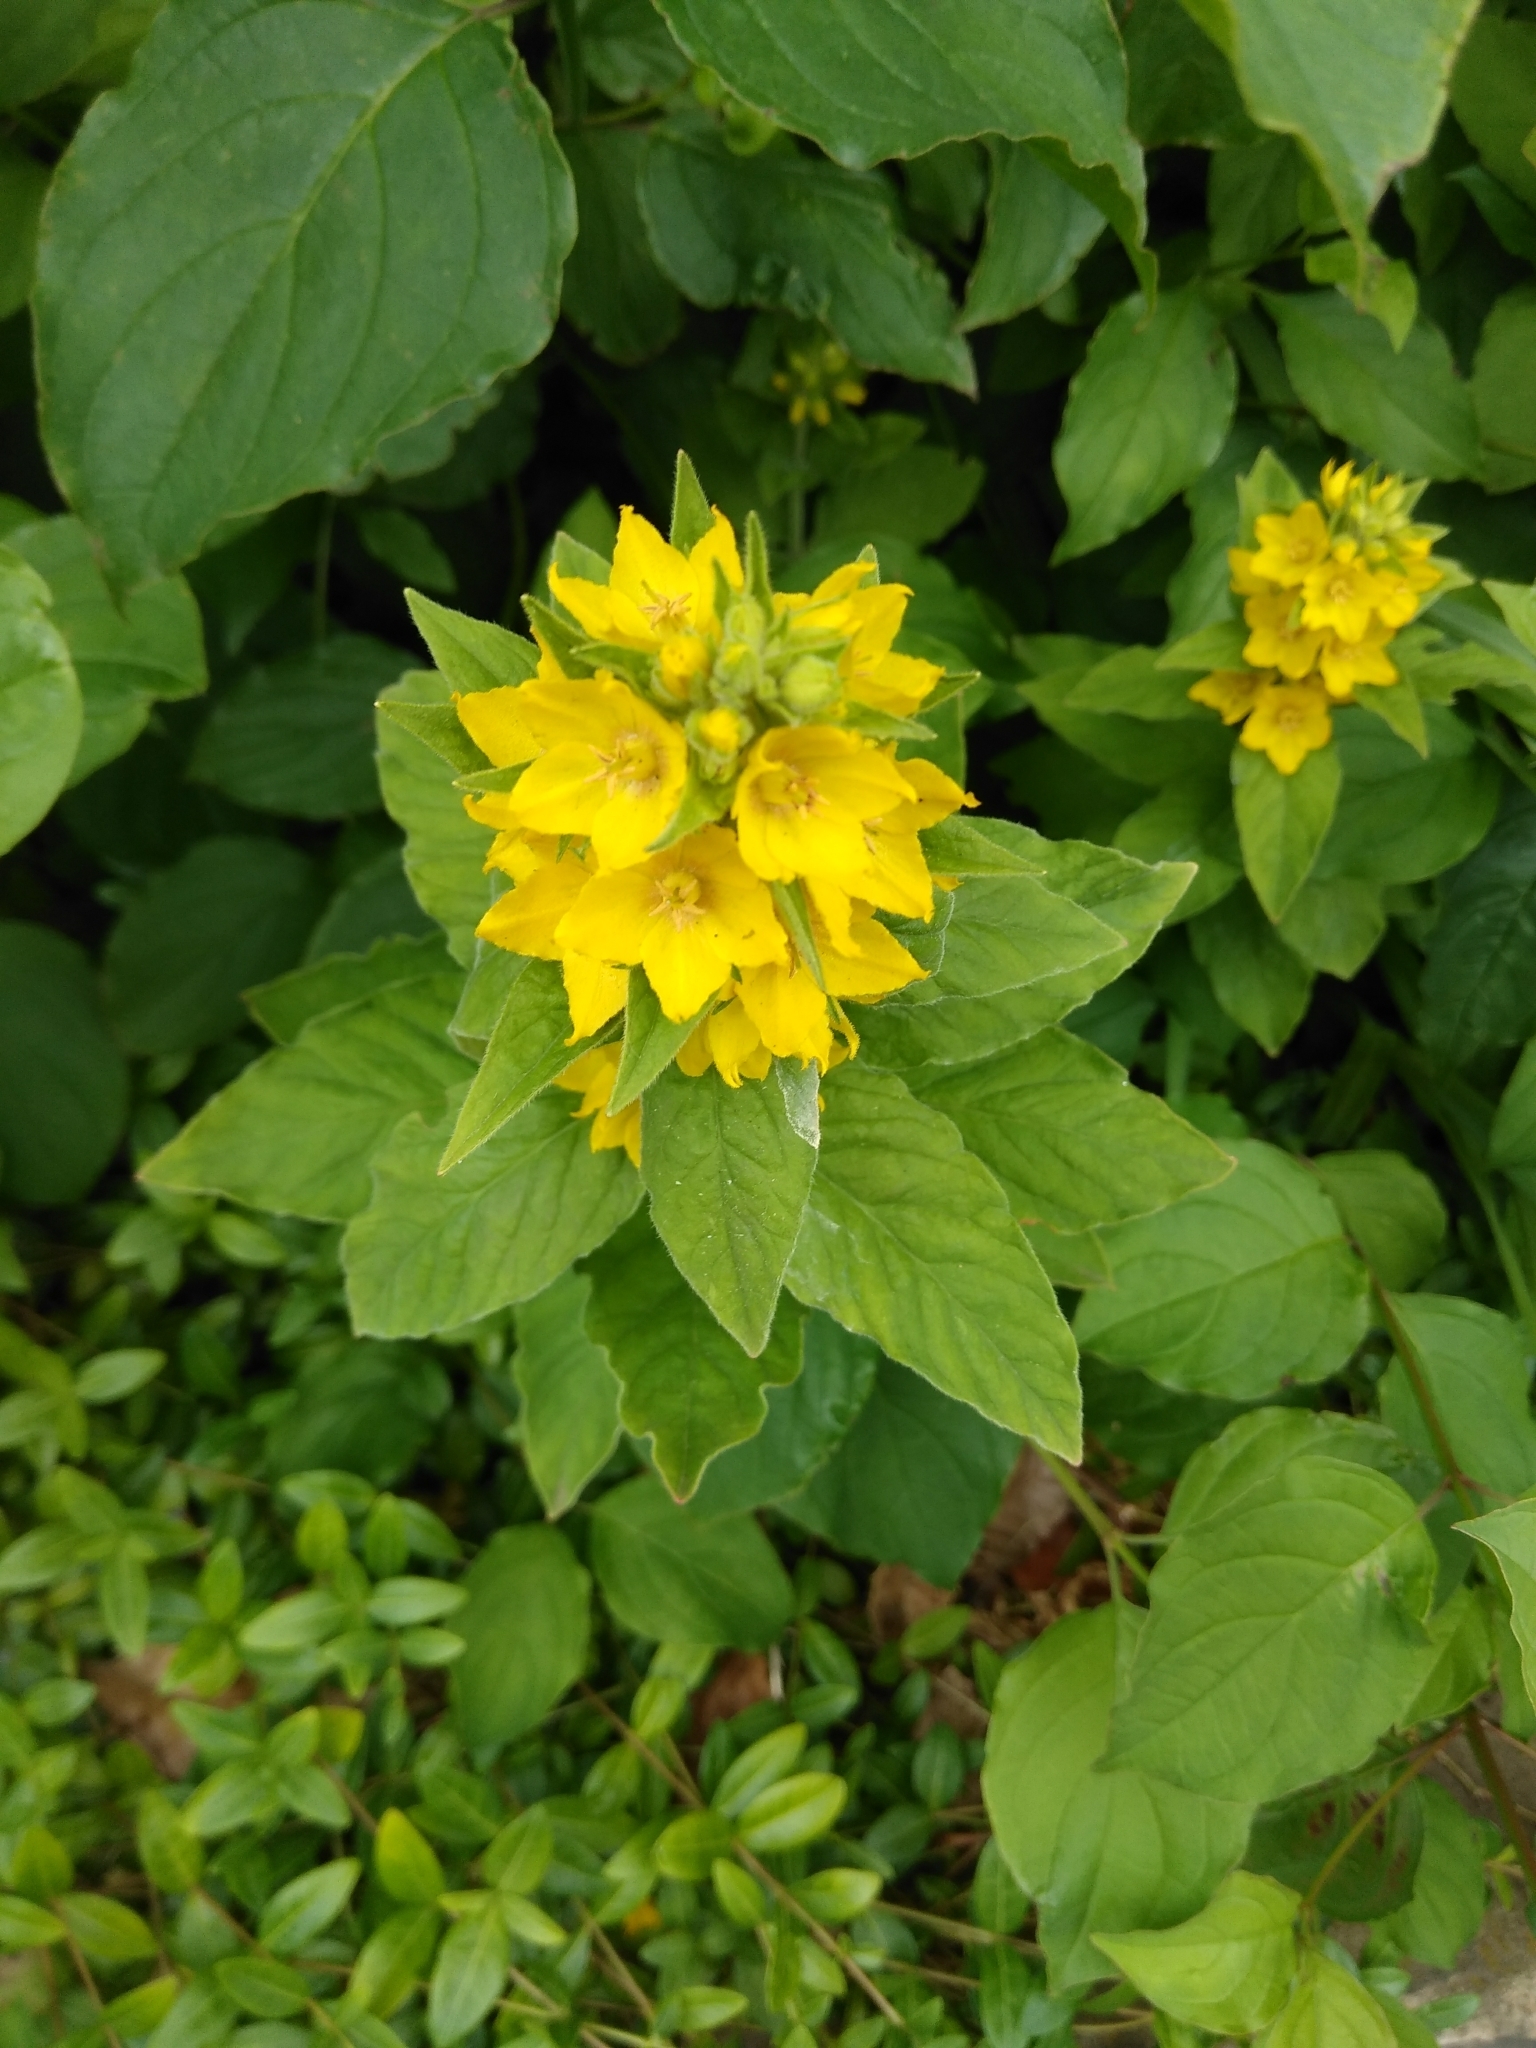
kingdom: Plantae
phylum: Tracheophyta
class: Magnoliopsida
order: Ericales
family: Primulaceae
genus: Lysimachia
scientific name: Lysimachia punctata
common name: Dotted loosestrife
